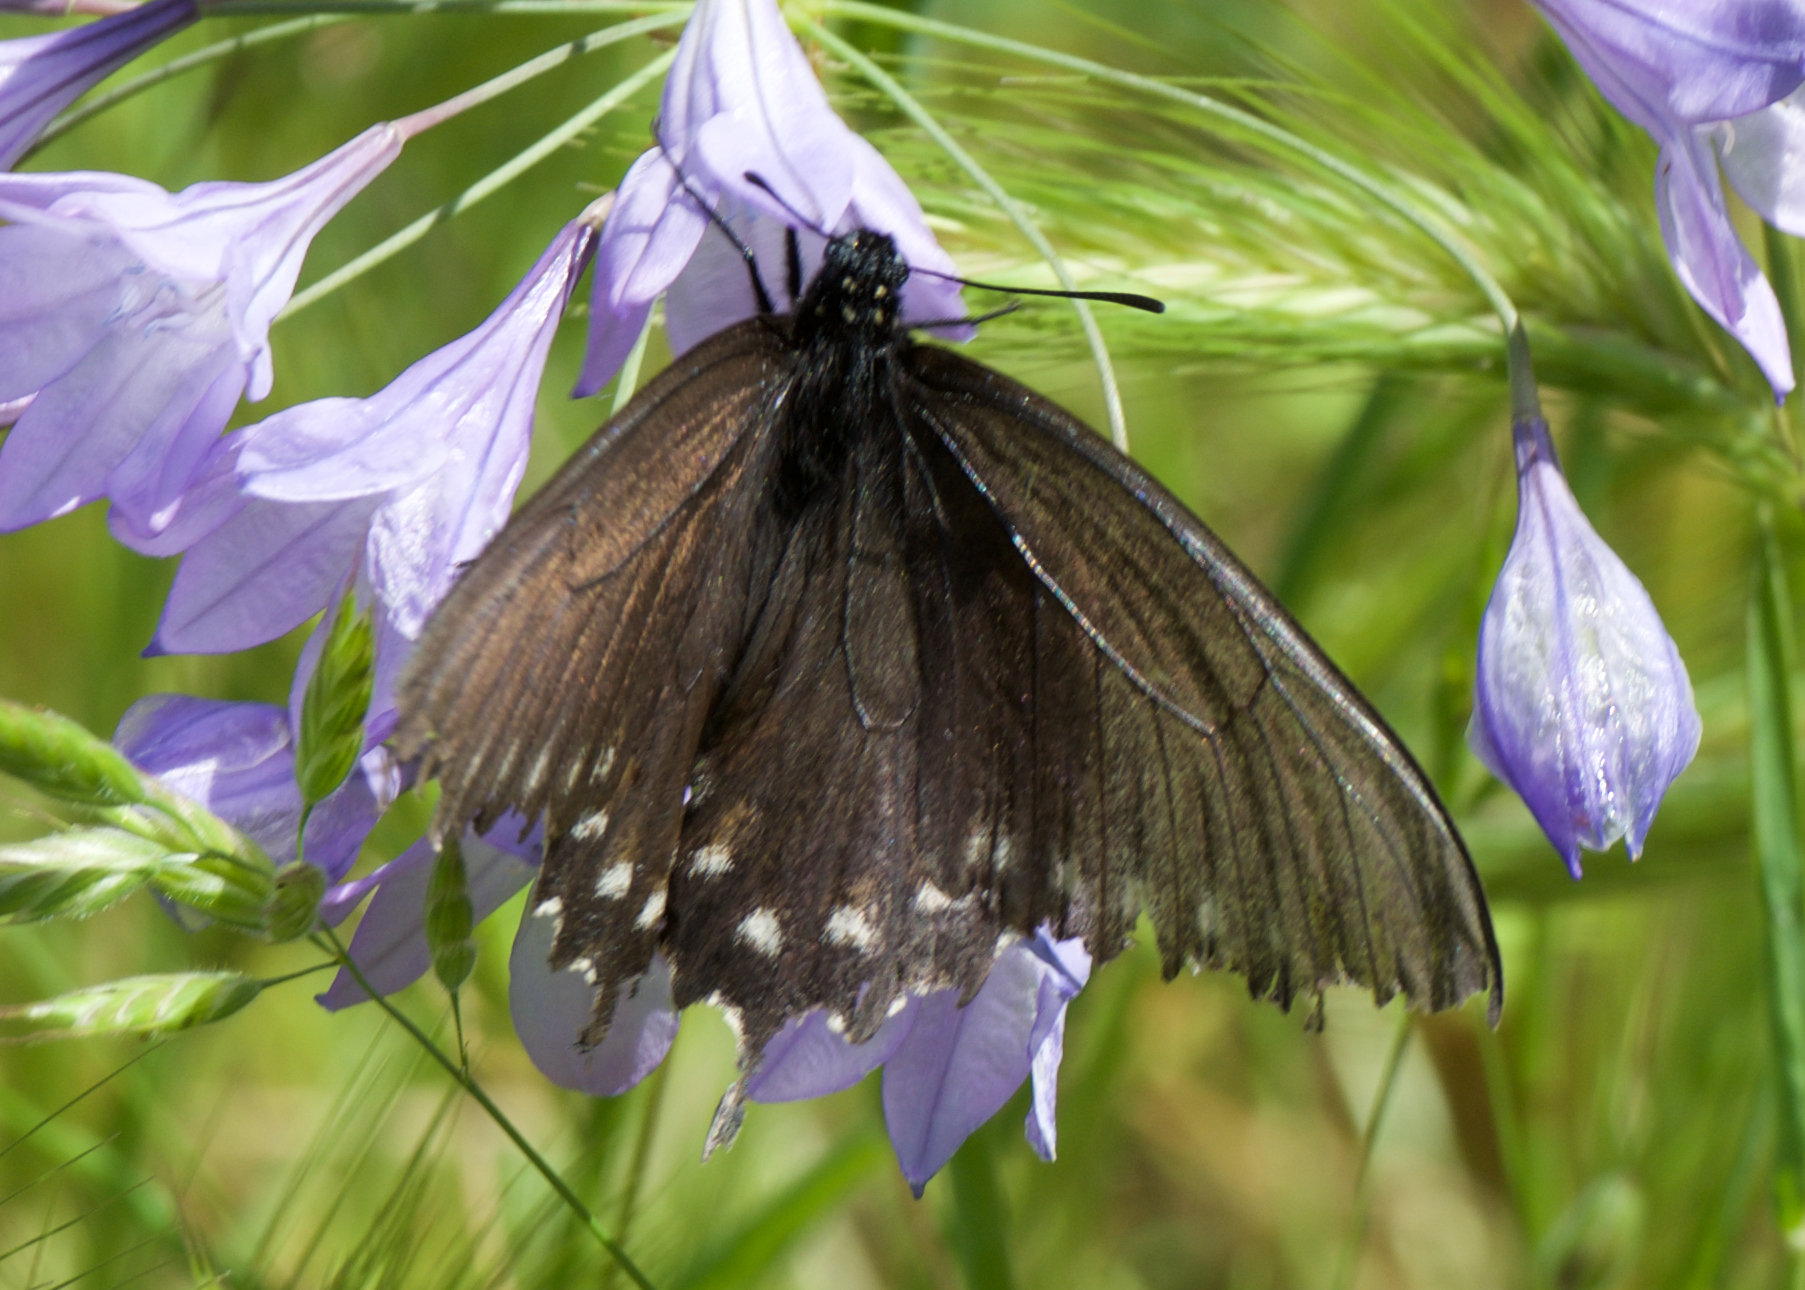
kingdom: Animalia
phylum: Arthropoda
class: Insecta
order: Lepidoptera
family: Papilionidae
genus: Battus
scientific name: Battus philenor
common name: Pipevine swallowtail
